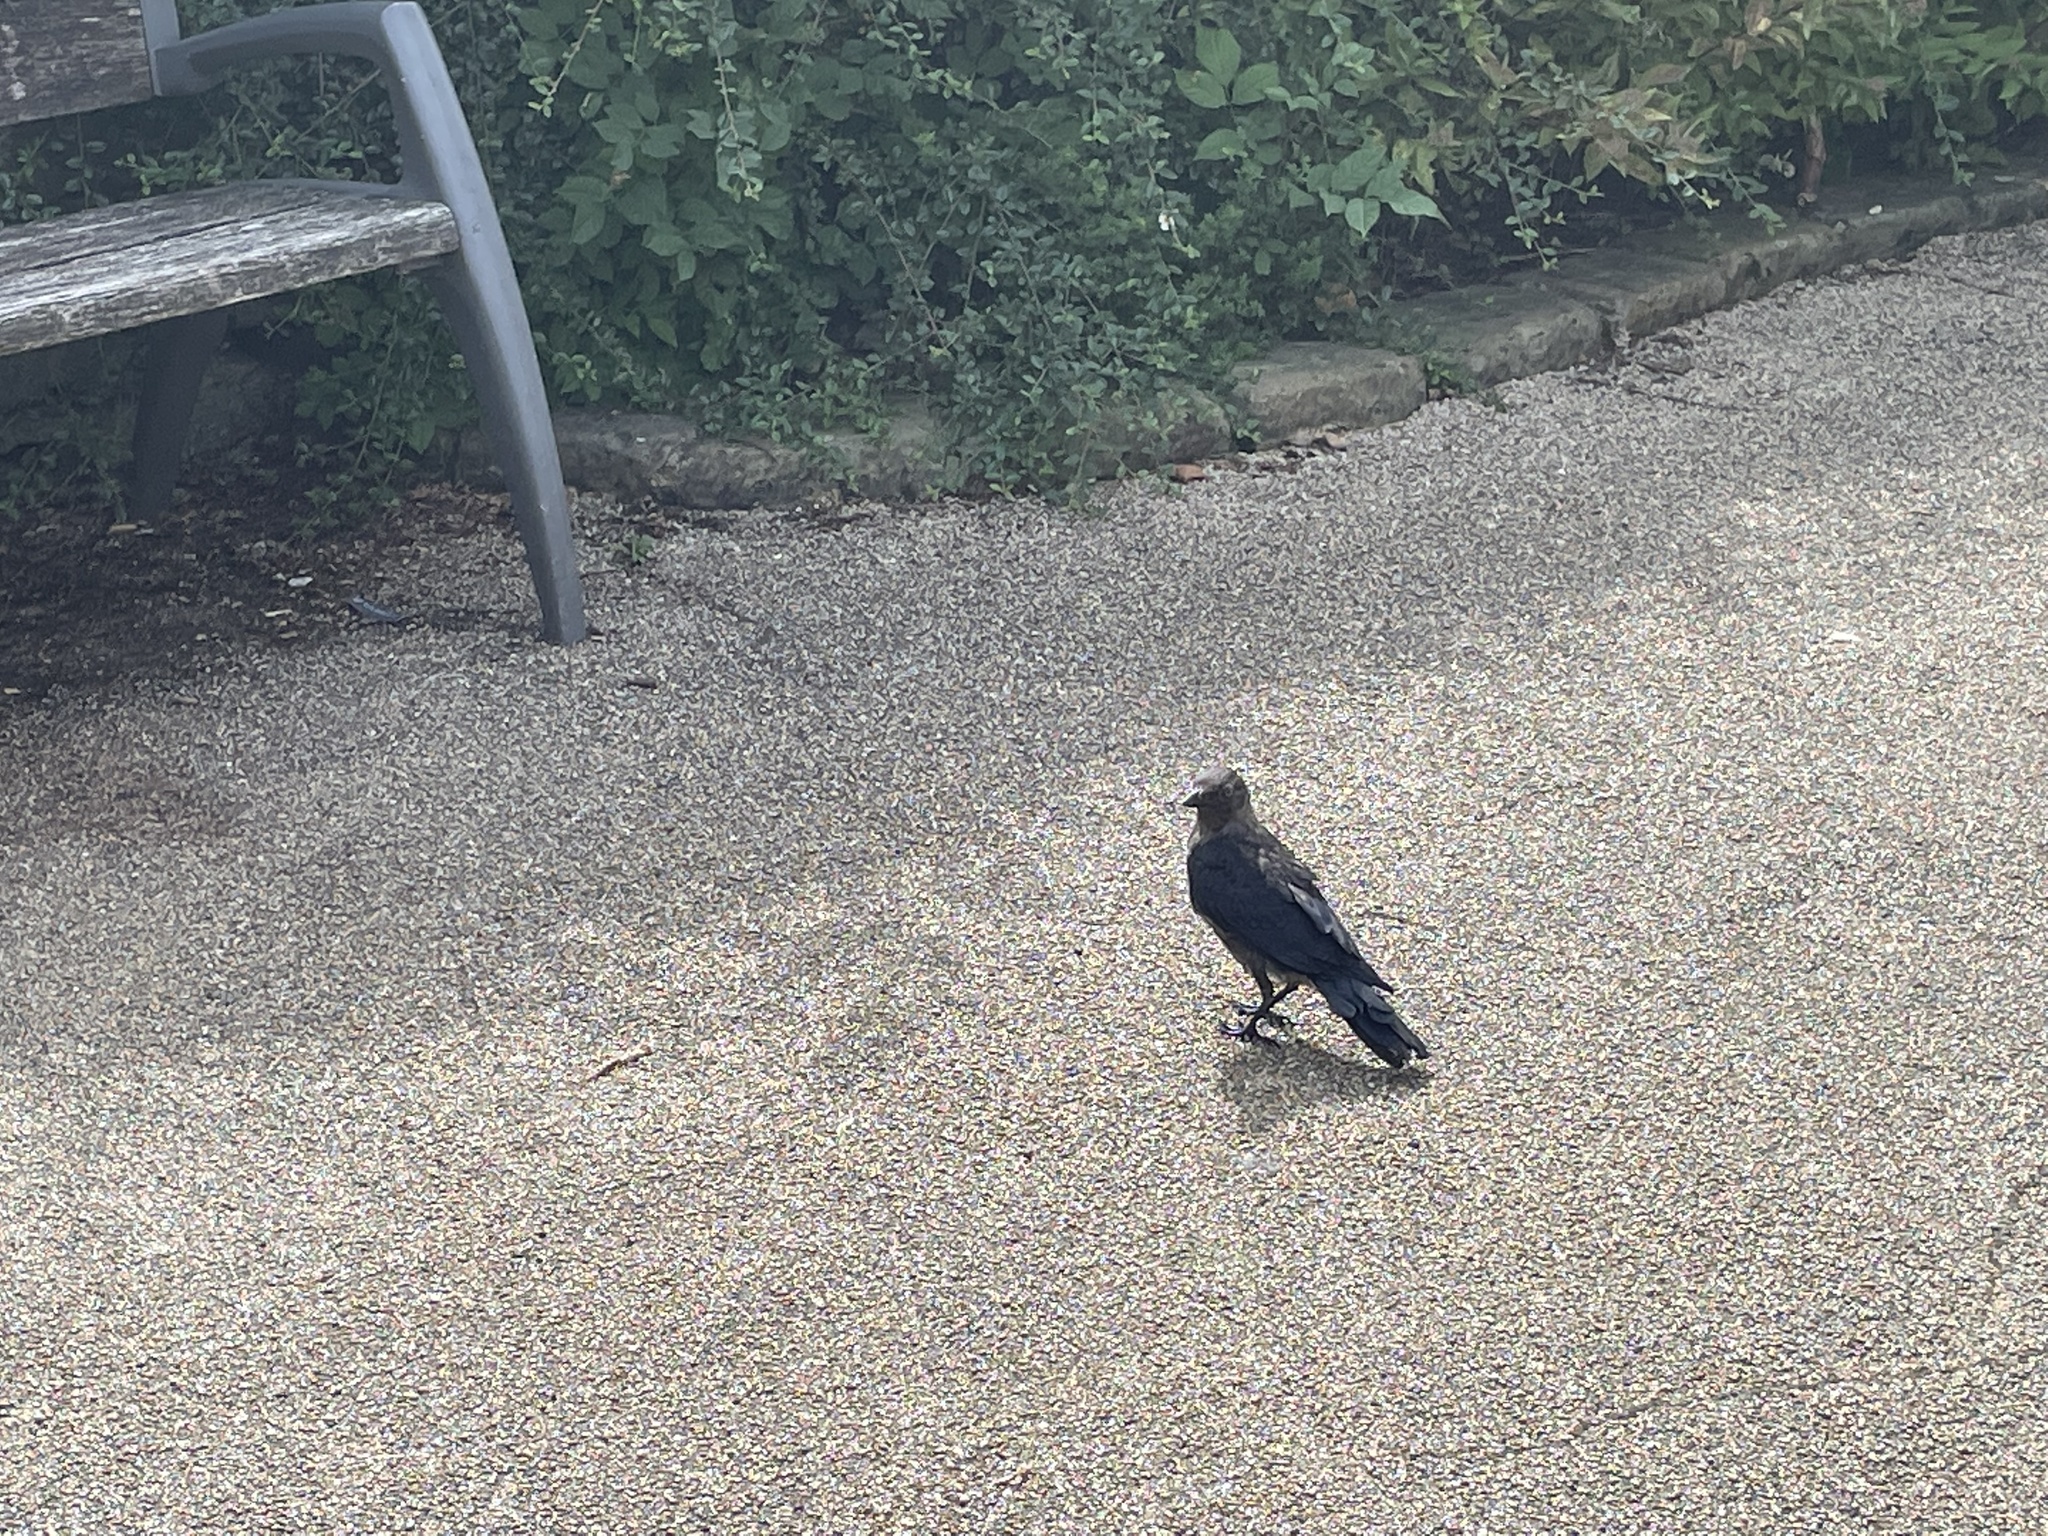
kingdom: Animalia
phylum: Chordata
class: Aves
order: Passeriformes
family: Corvidae
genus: Coloeus
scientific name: Coloeus monedula
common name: Western jackdaw
